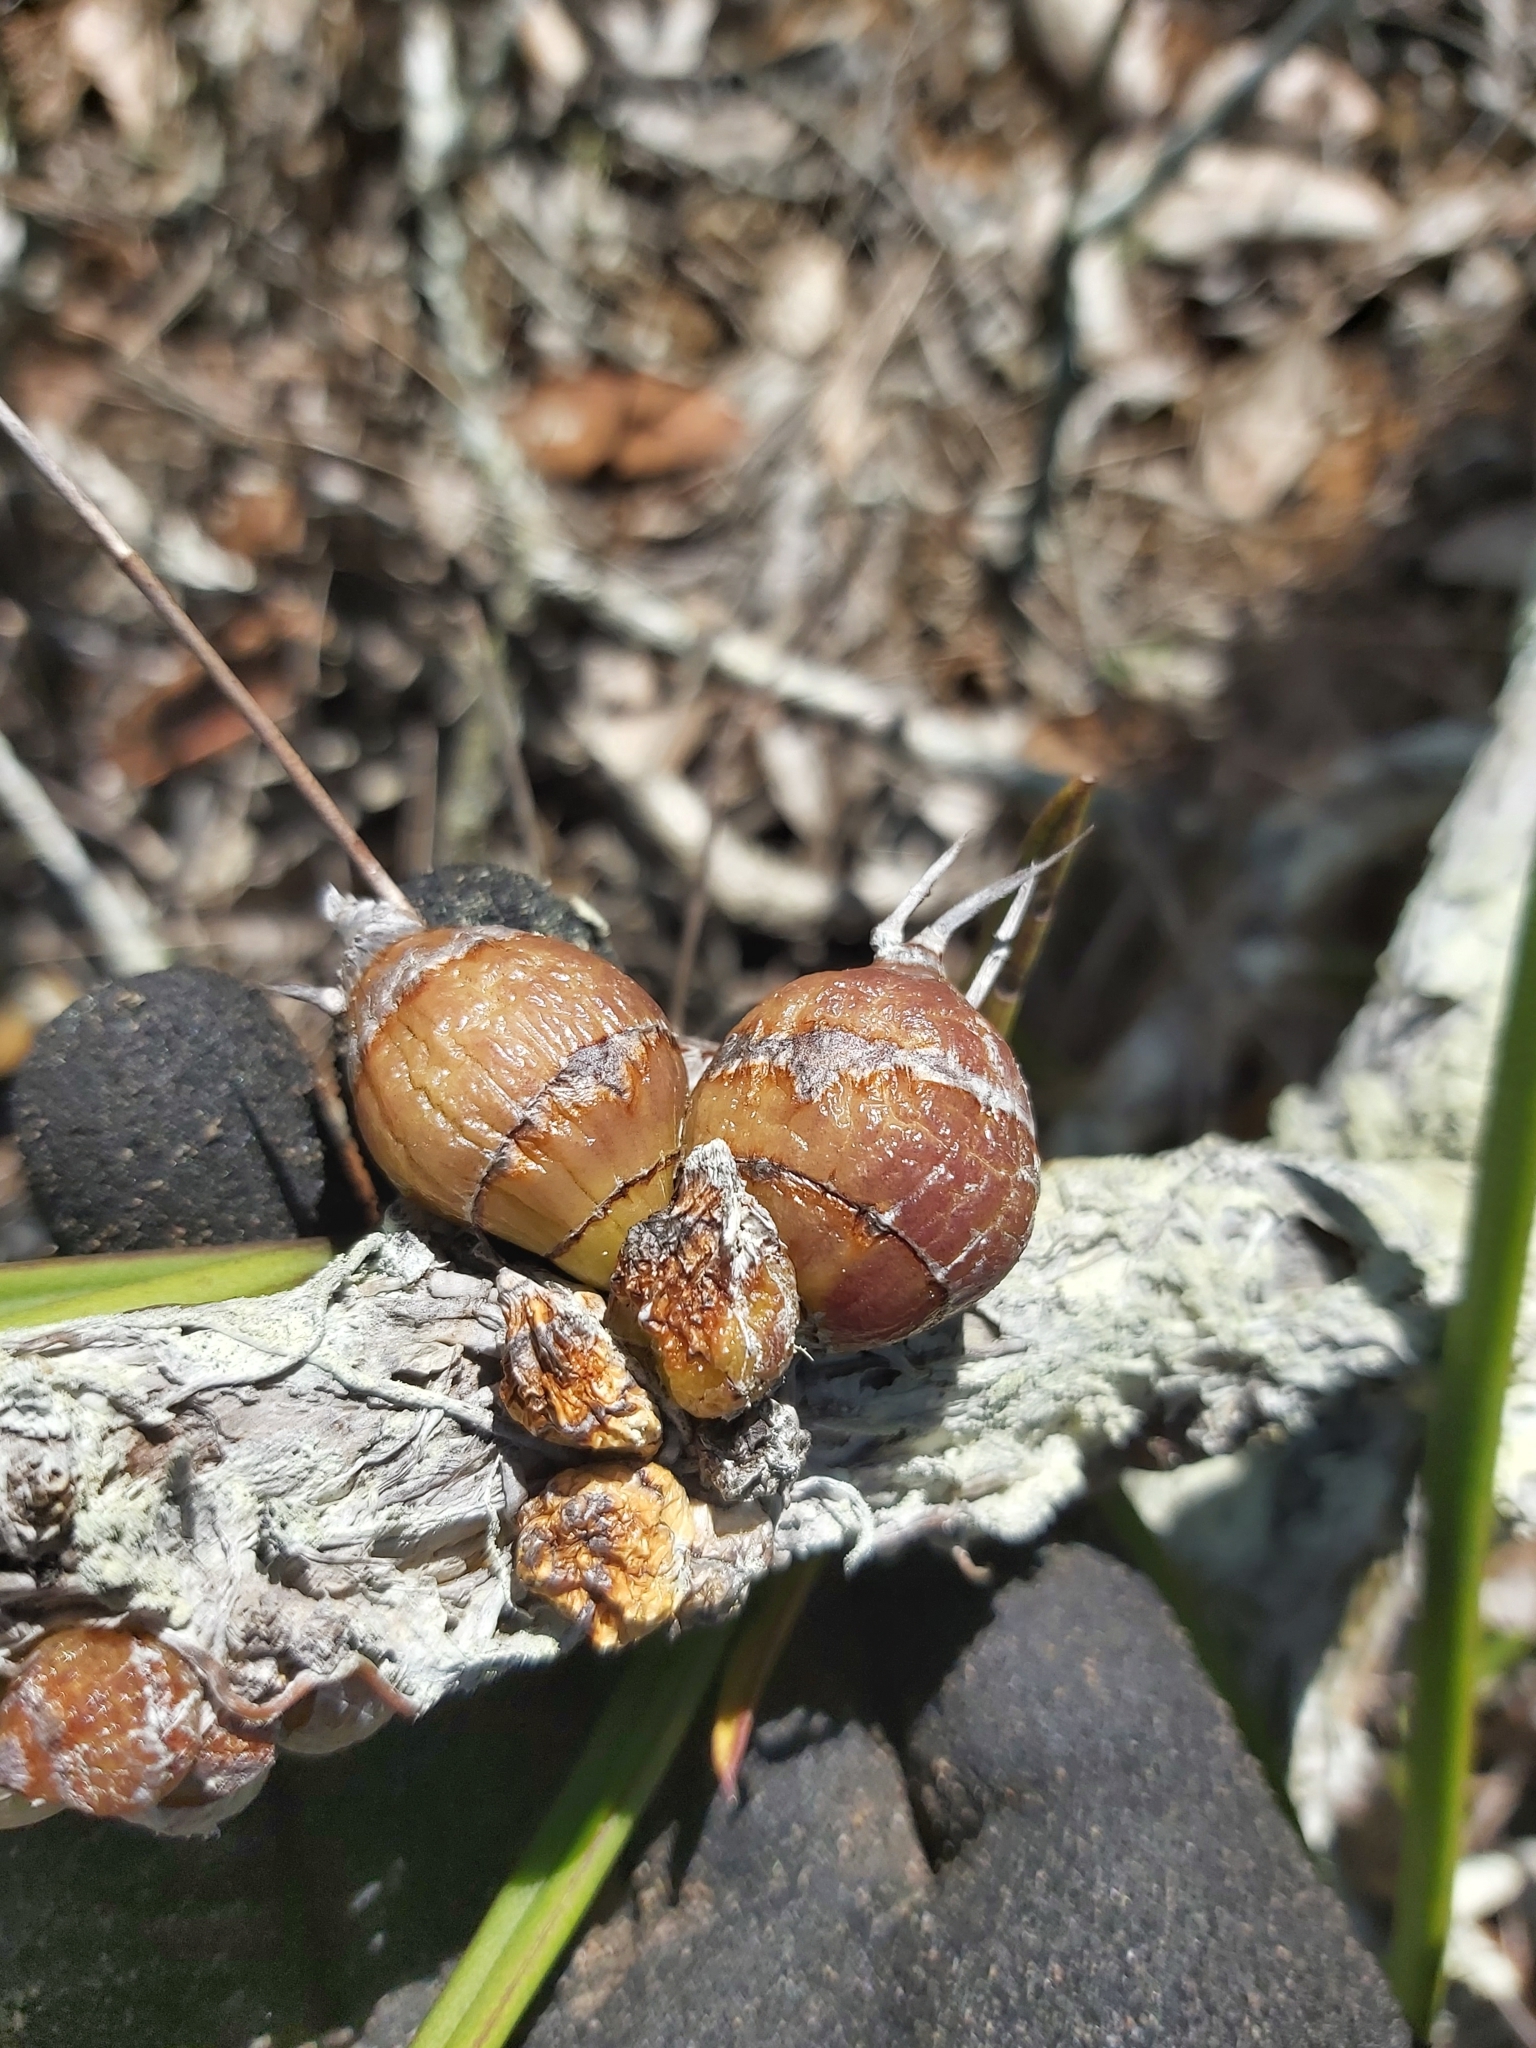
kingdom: Plantae
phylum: Tracheophyta
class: Liliopsida
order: Asparagales
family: Orchidaceae
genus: Dendrobium
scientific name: Dendrobium canaliculatum
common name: Tea tree orchid
